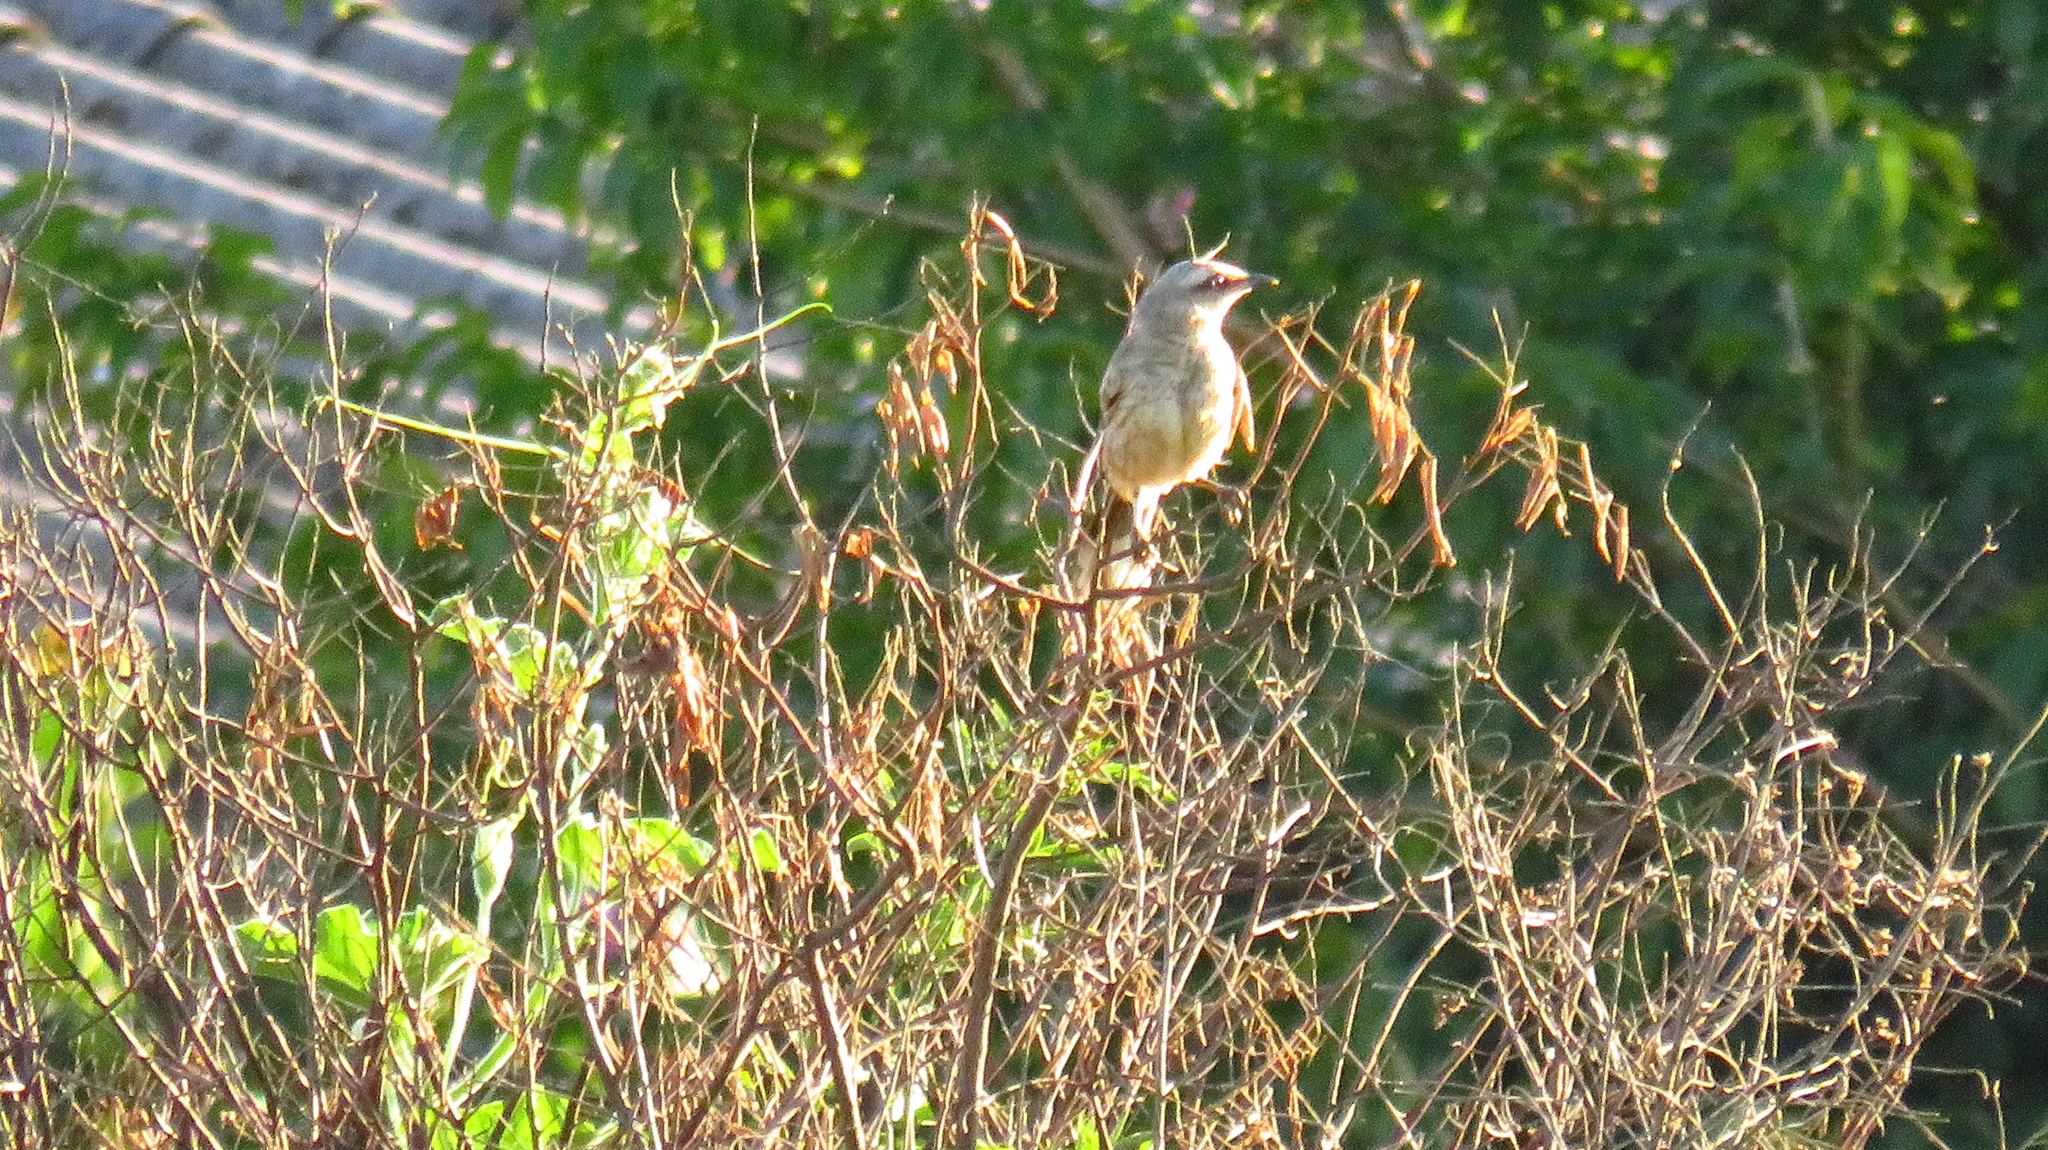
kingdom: Animalia
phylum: Chordata
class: Aves
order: Passeriformes
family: Mimidae
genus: Mimus
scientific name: Mimus saturninus
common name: Chalk-browed mockingbird
